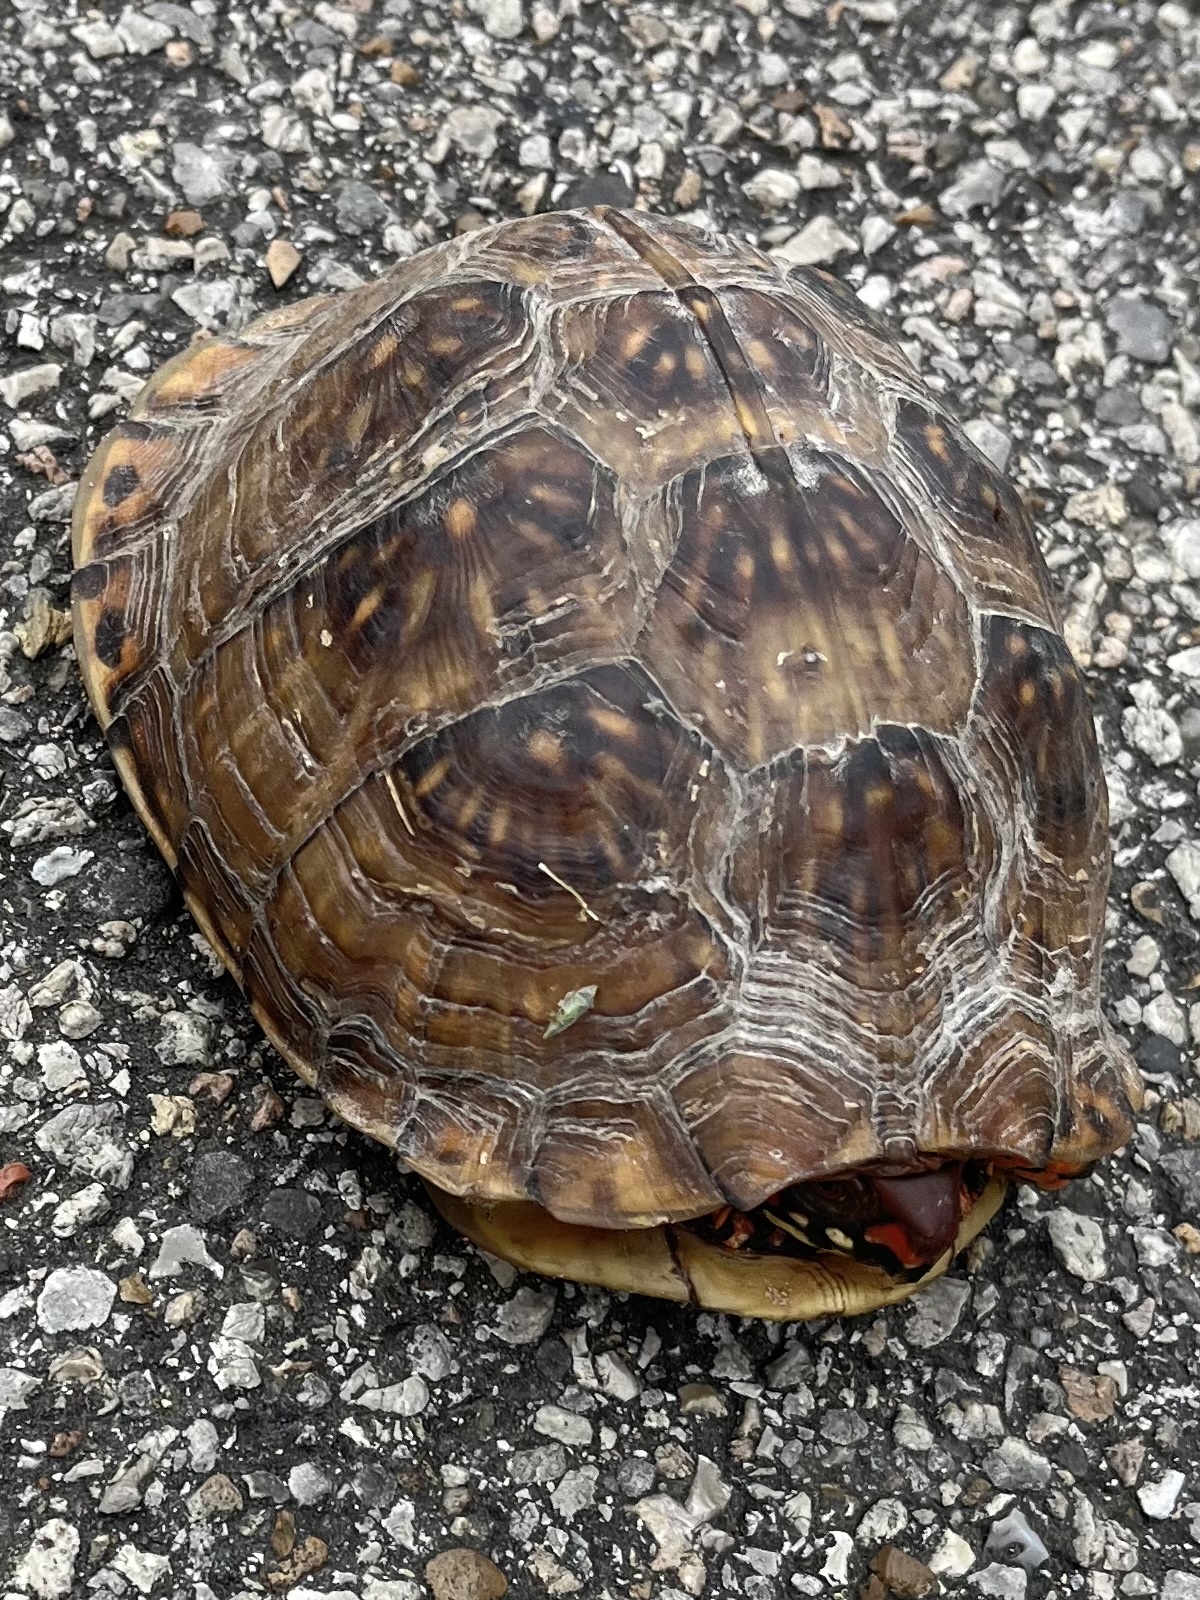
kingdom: Animalia
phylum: Chordata
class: Testudines
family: Emydidae
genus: Terrapene
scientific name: Terrapene carolina
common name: Common box turtle
